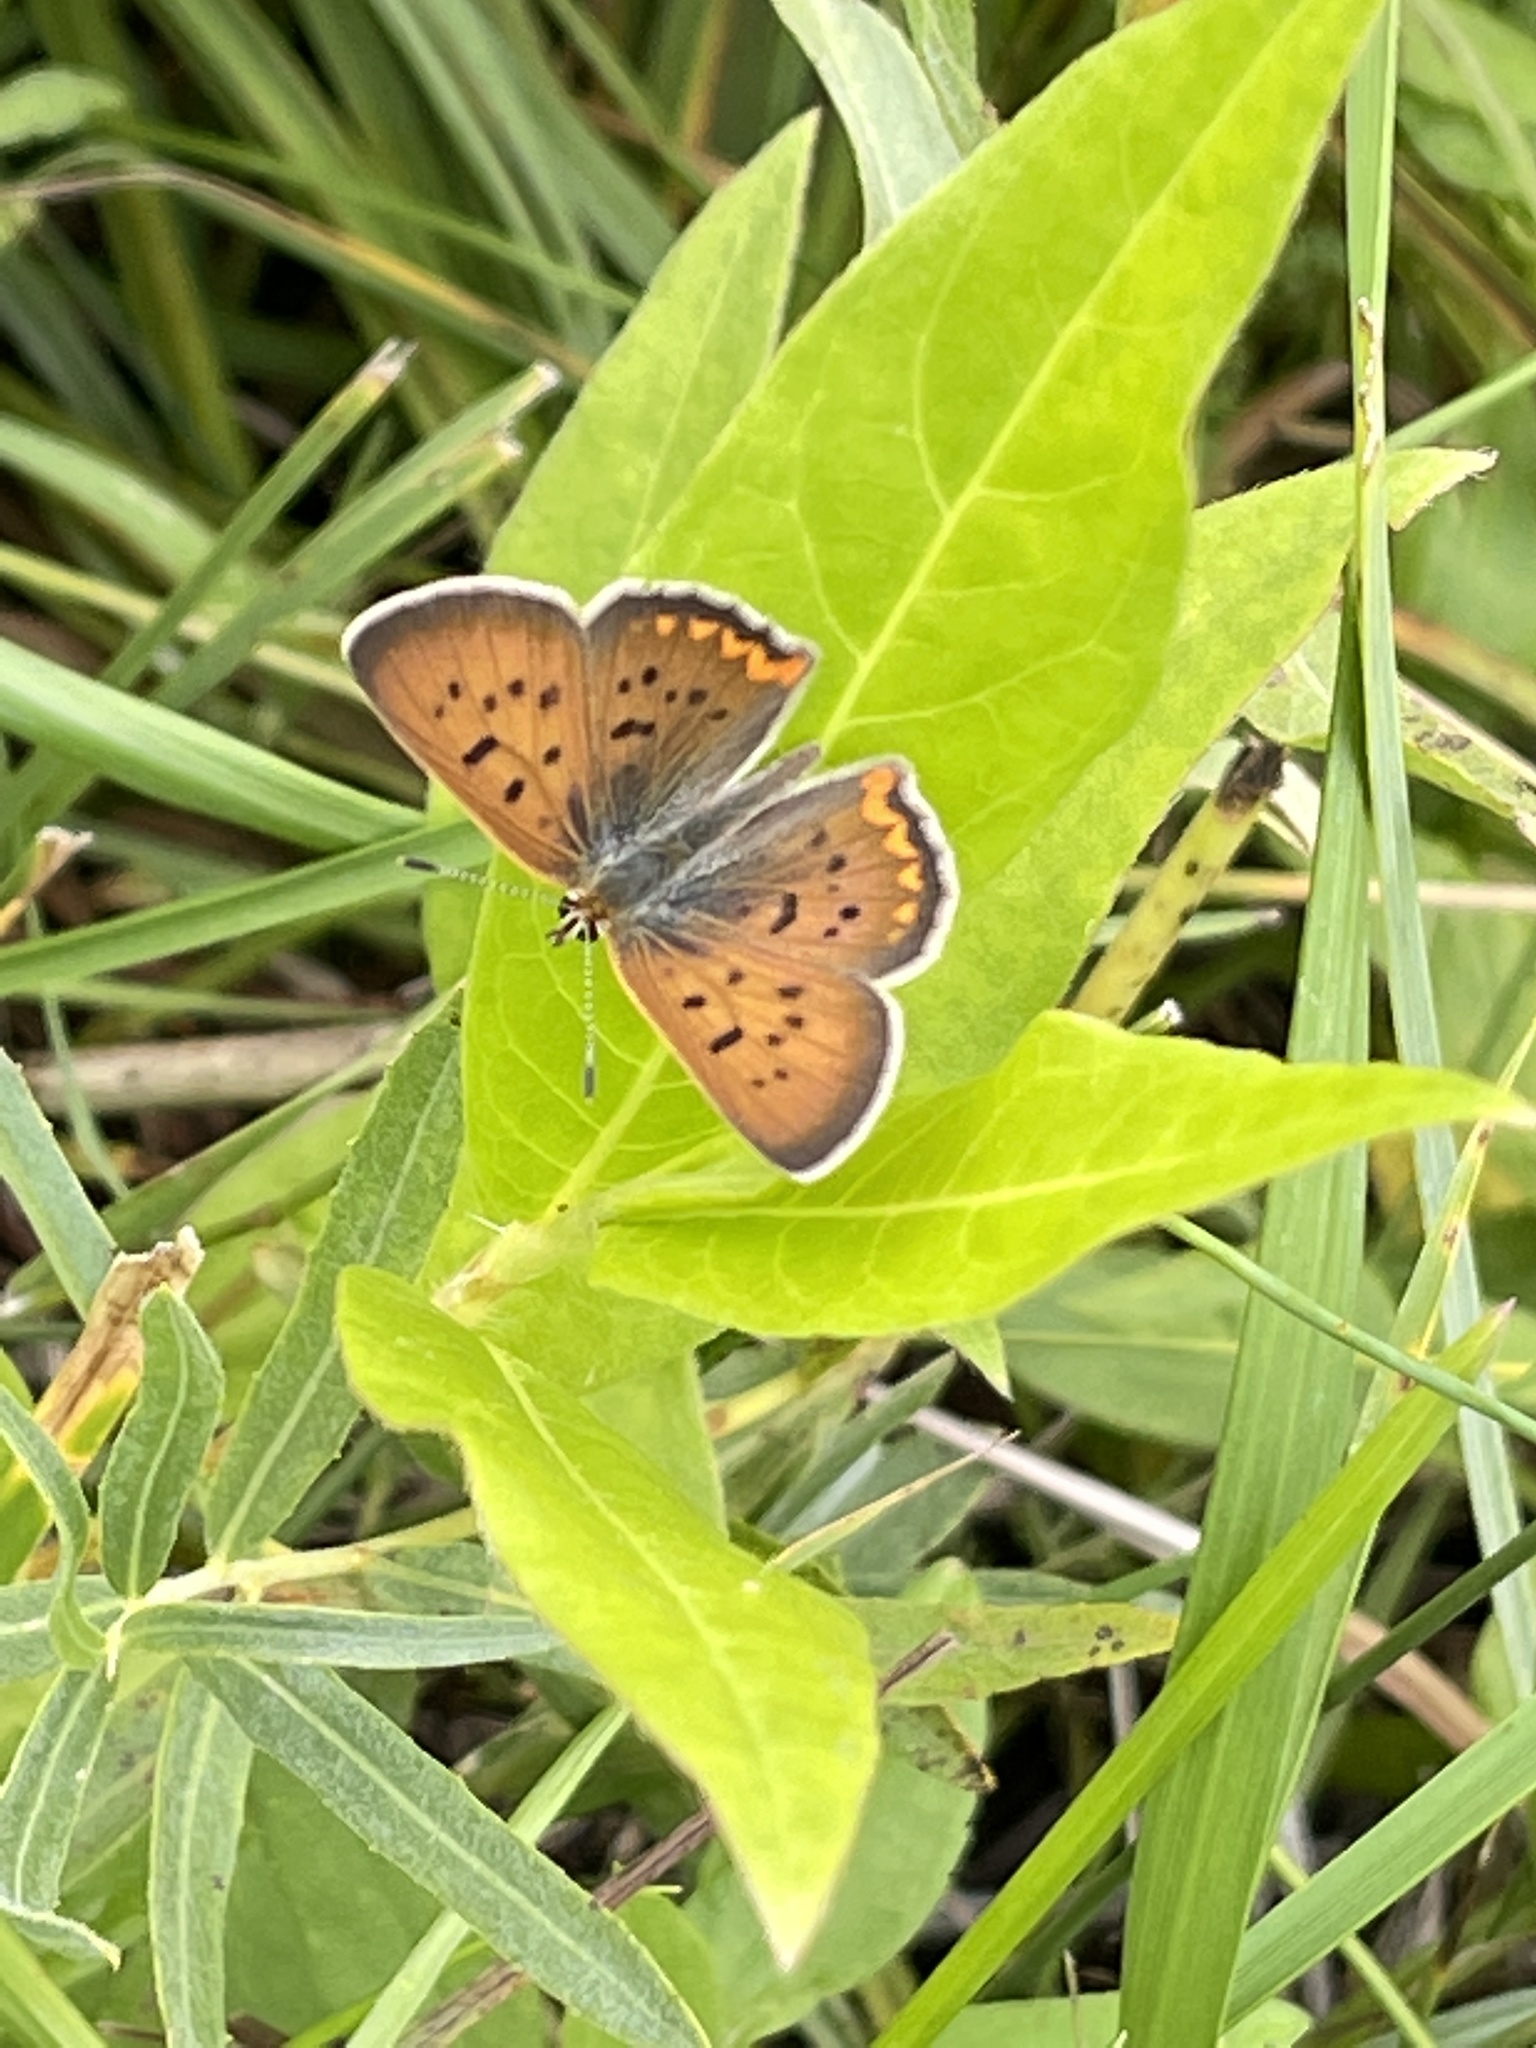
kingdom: Animalia
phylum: Arthropoda
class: Insecta
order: Lepidoptera
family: Lycaenidae
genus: Tharsalea
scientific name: Tharsalea helloides
